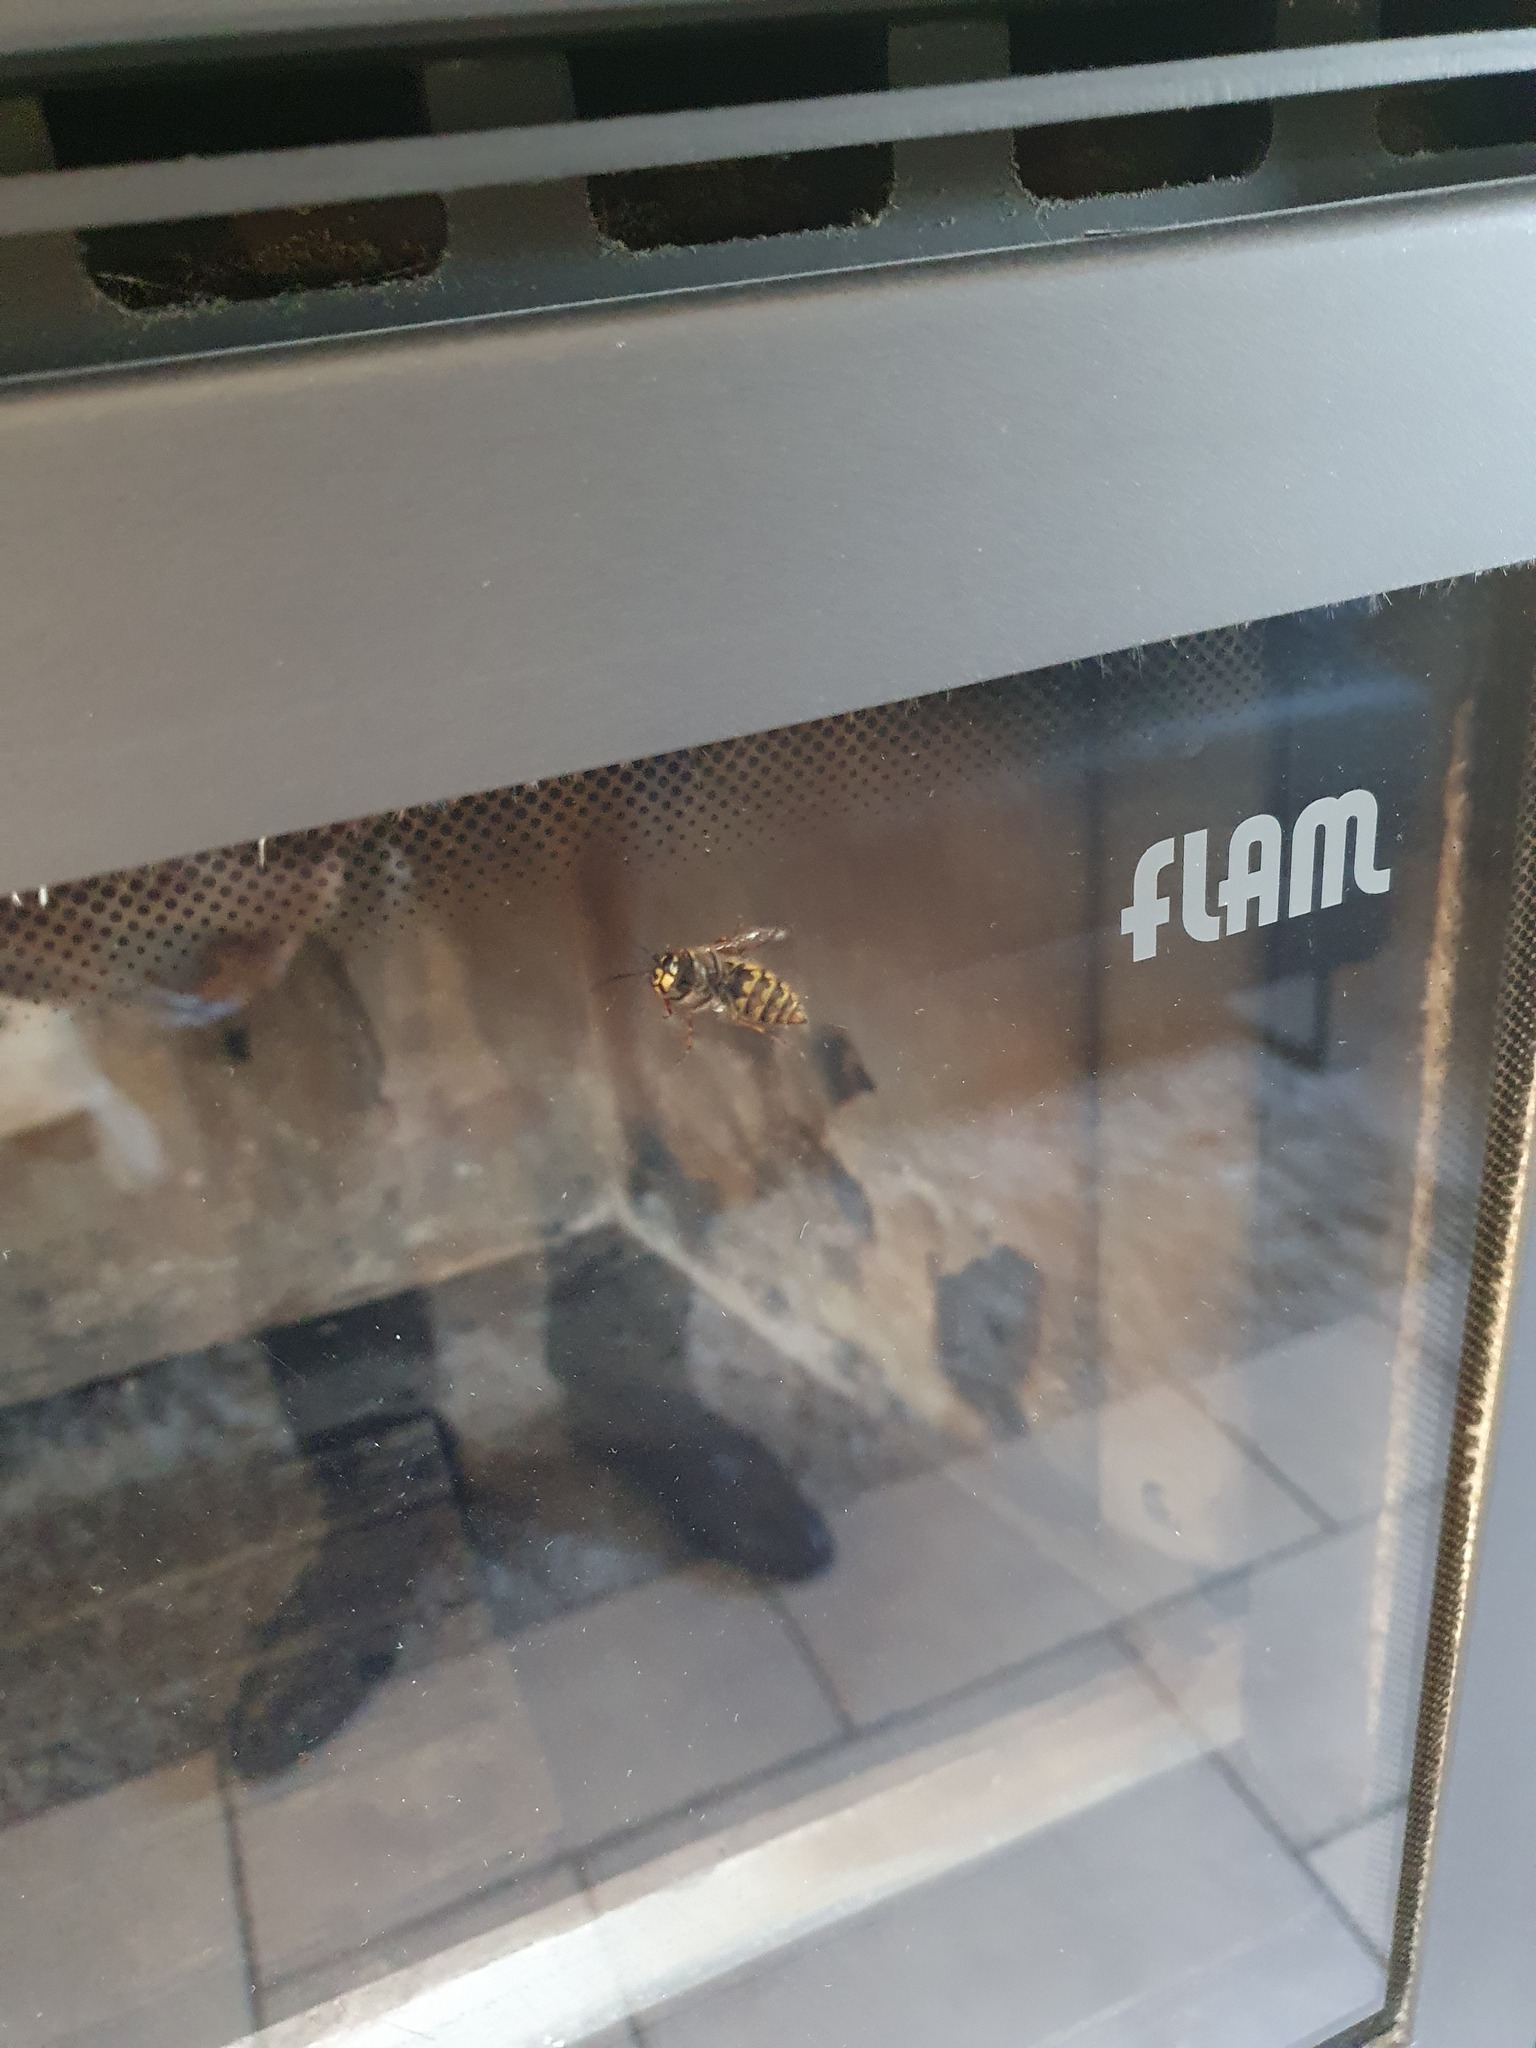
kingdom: Animalia
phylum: Arthropoda
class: Insecta
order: Hymenoptera
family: Vespidae
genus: Vespula
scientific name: Vespula vulgaris
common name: Common wasp
